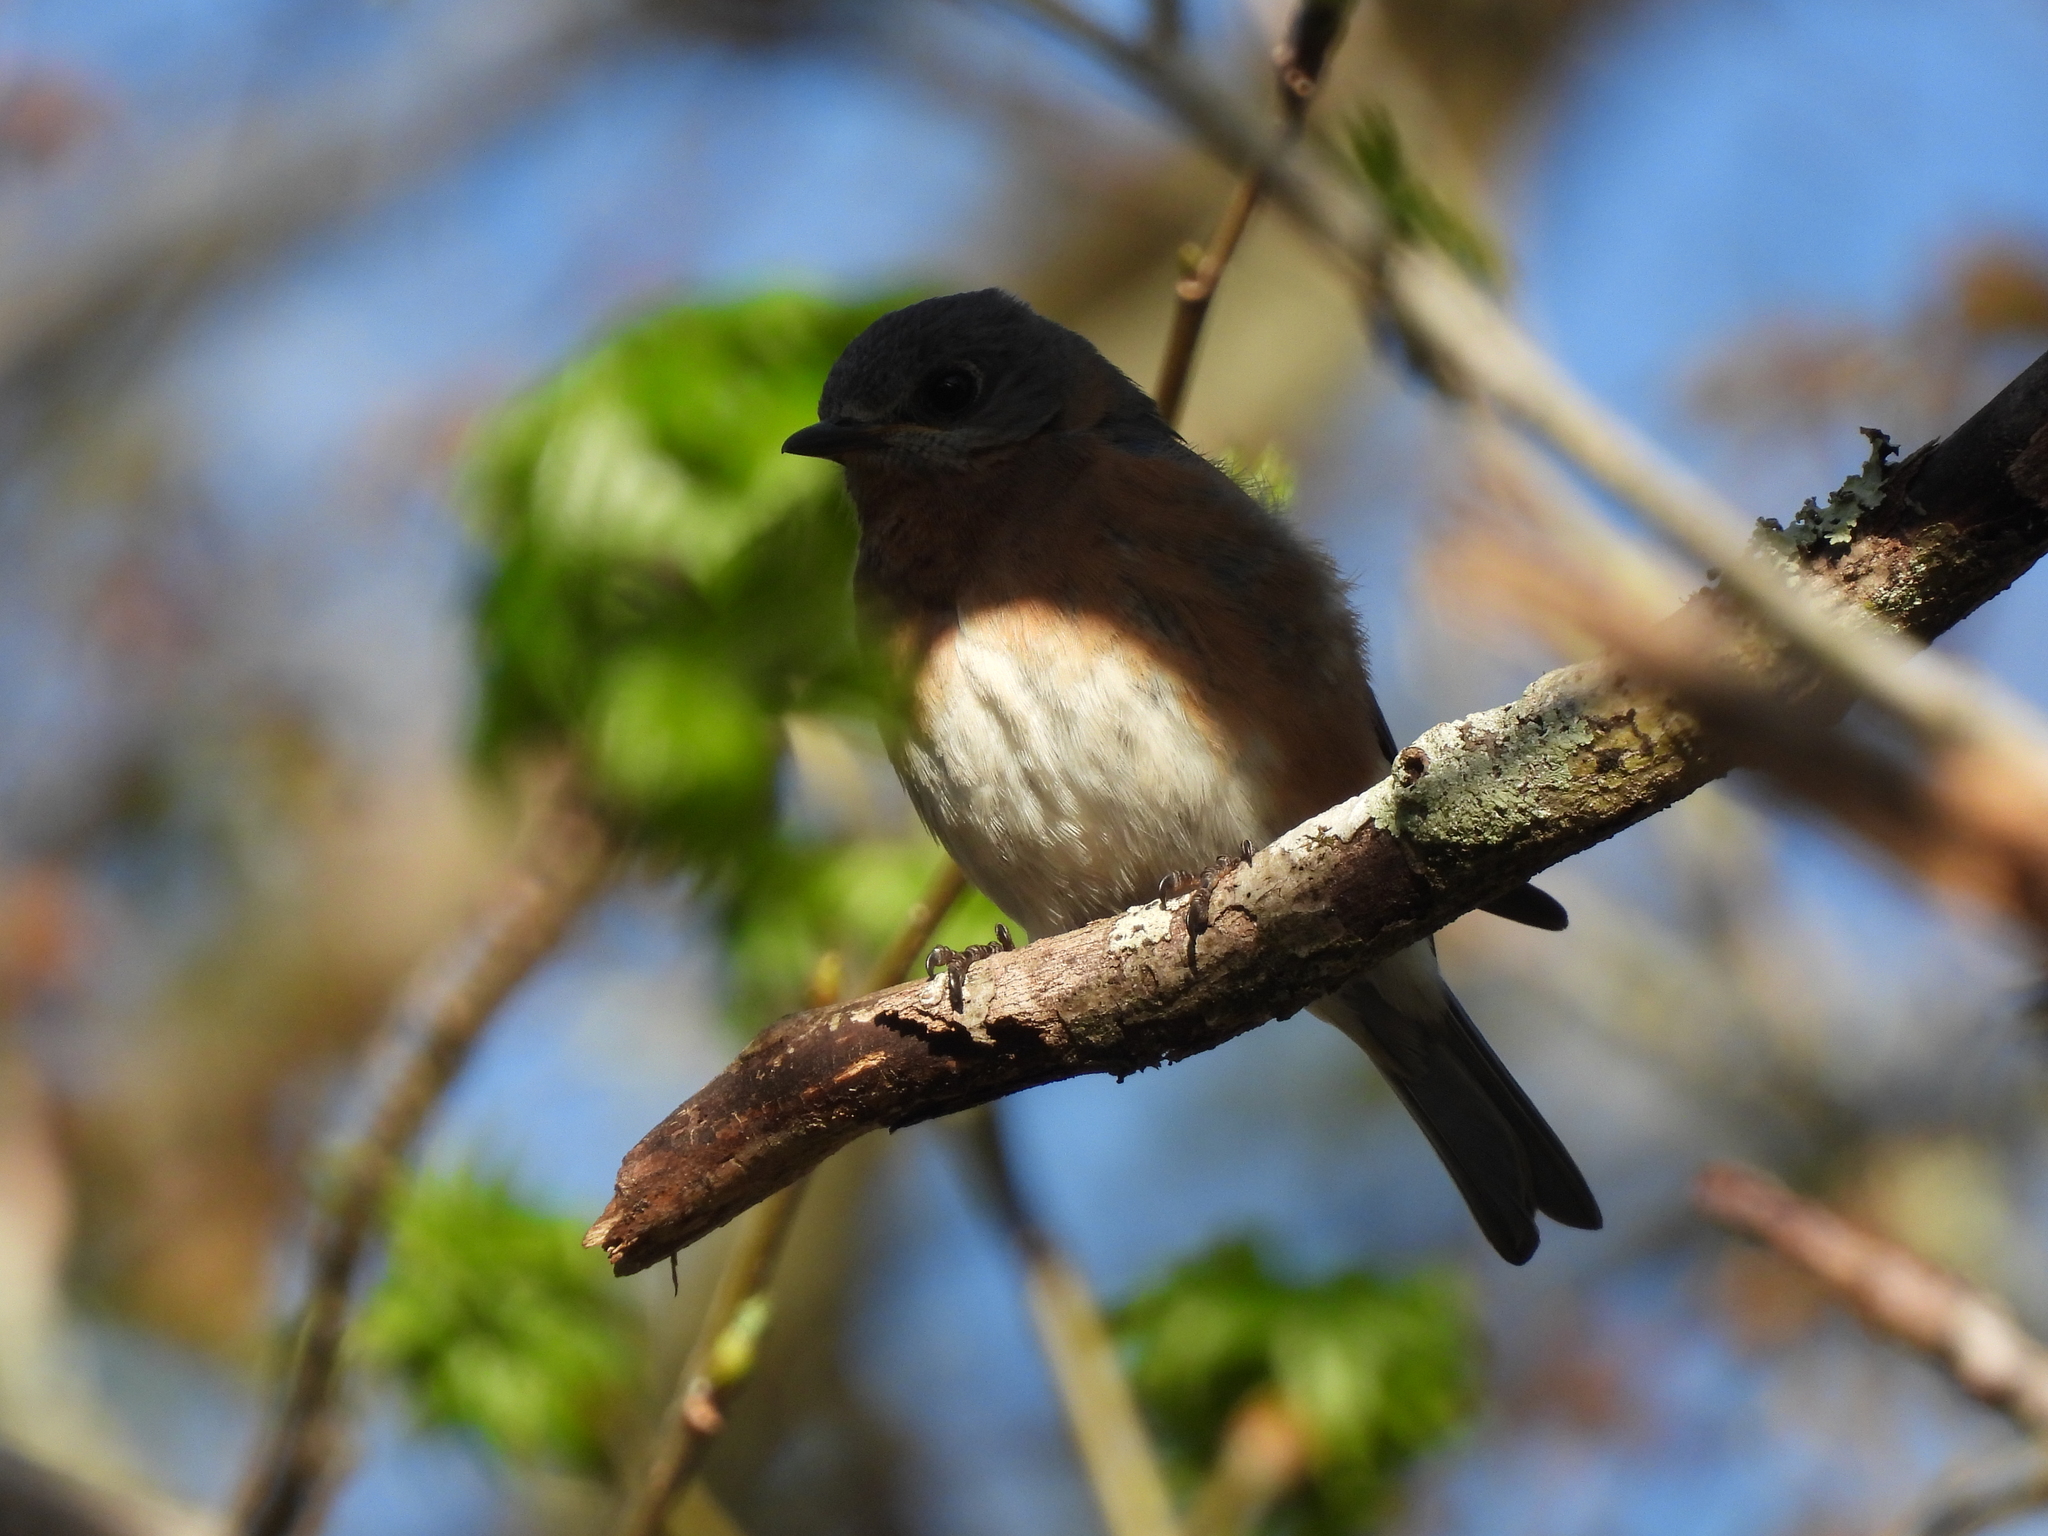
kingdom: Animalia
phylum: Chordata
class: Aves
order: Passeriformes
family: Turdidae
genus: Sialia
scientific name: Sialia sialis
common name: Eastern bluebird
